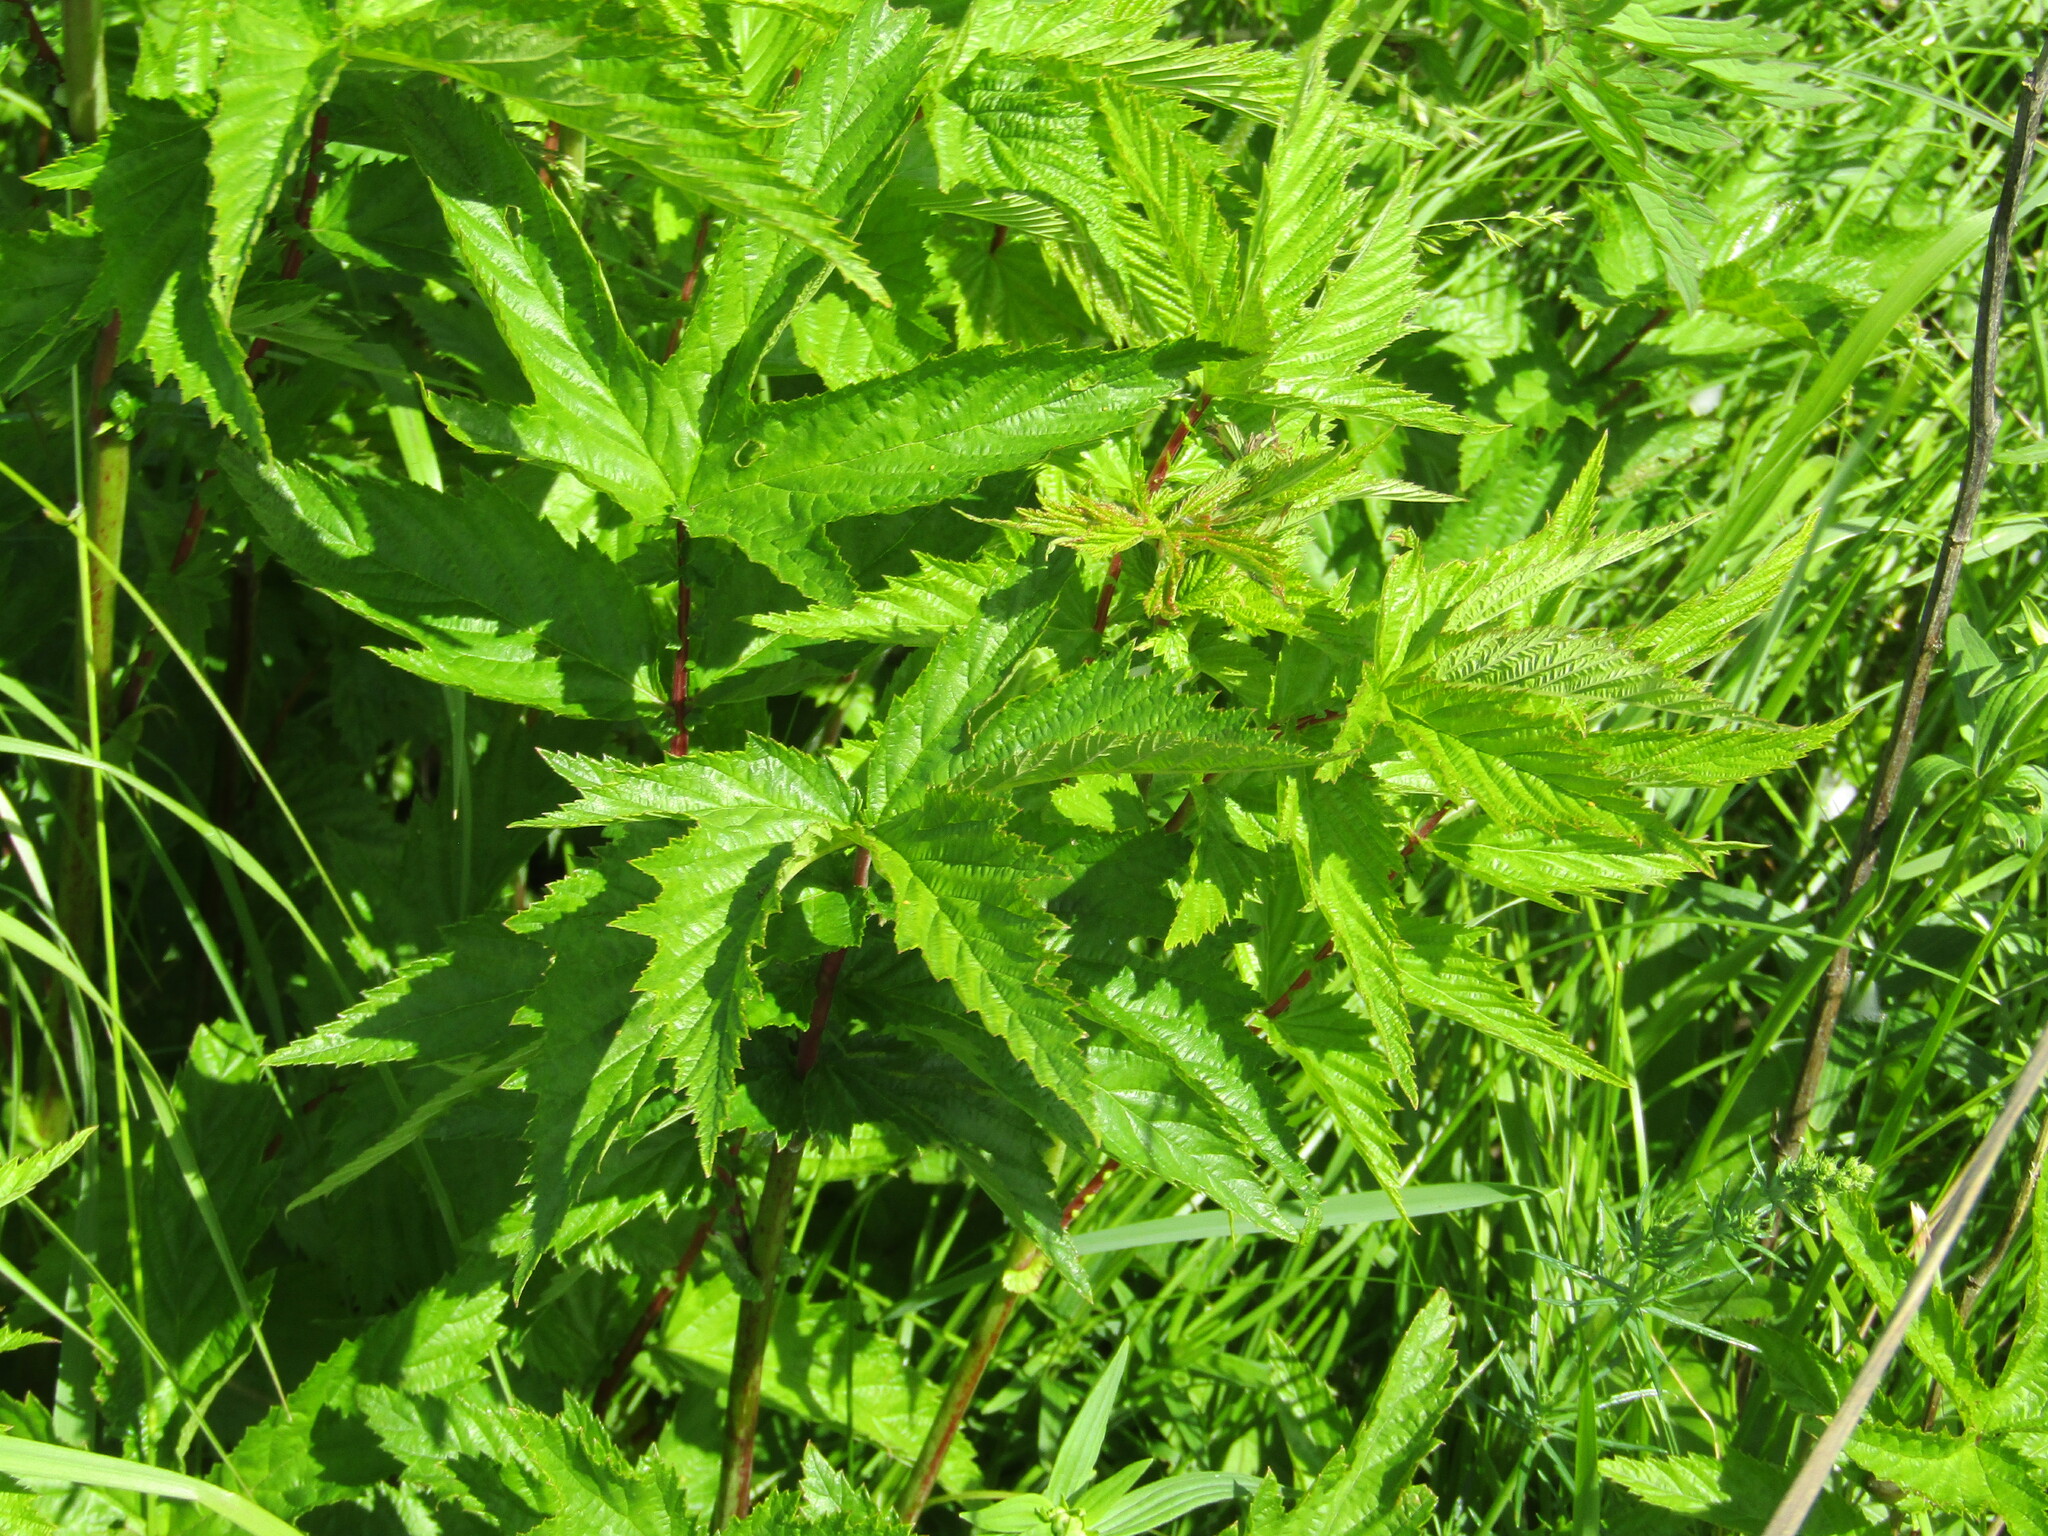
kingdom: Plantae
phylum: Tracheophyta
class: Magnoliopsida
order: Rosales
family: Rosaceae
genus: Filipendula
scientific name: Filipendula ulmaria
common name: Meadowsweet
